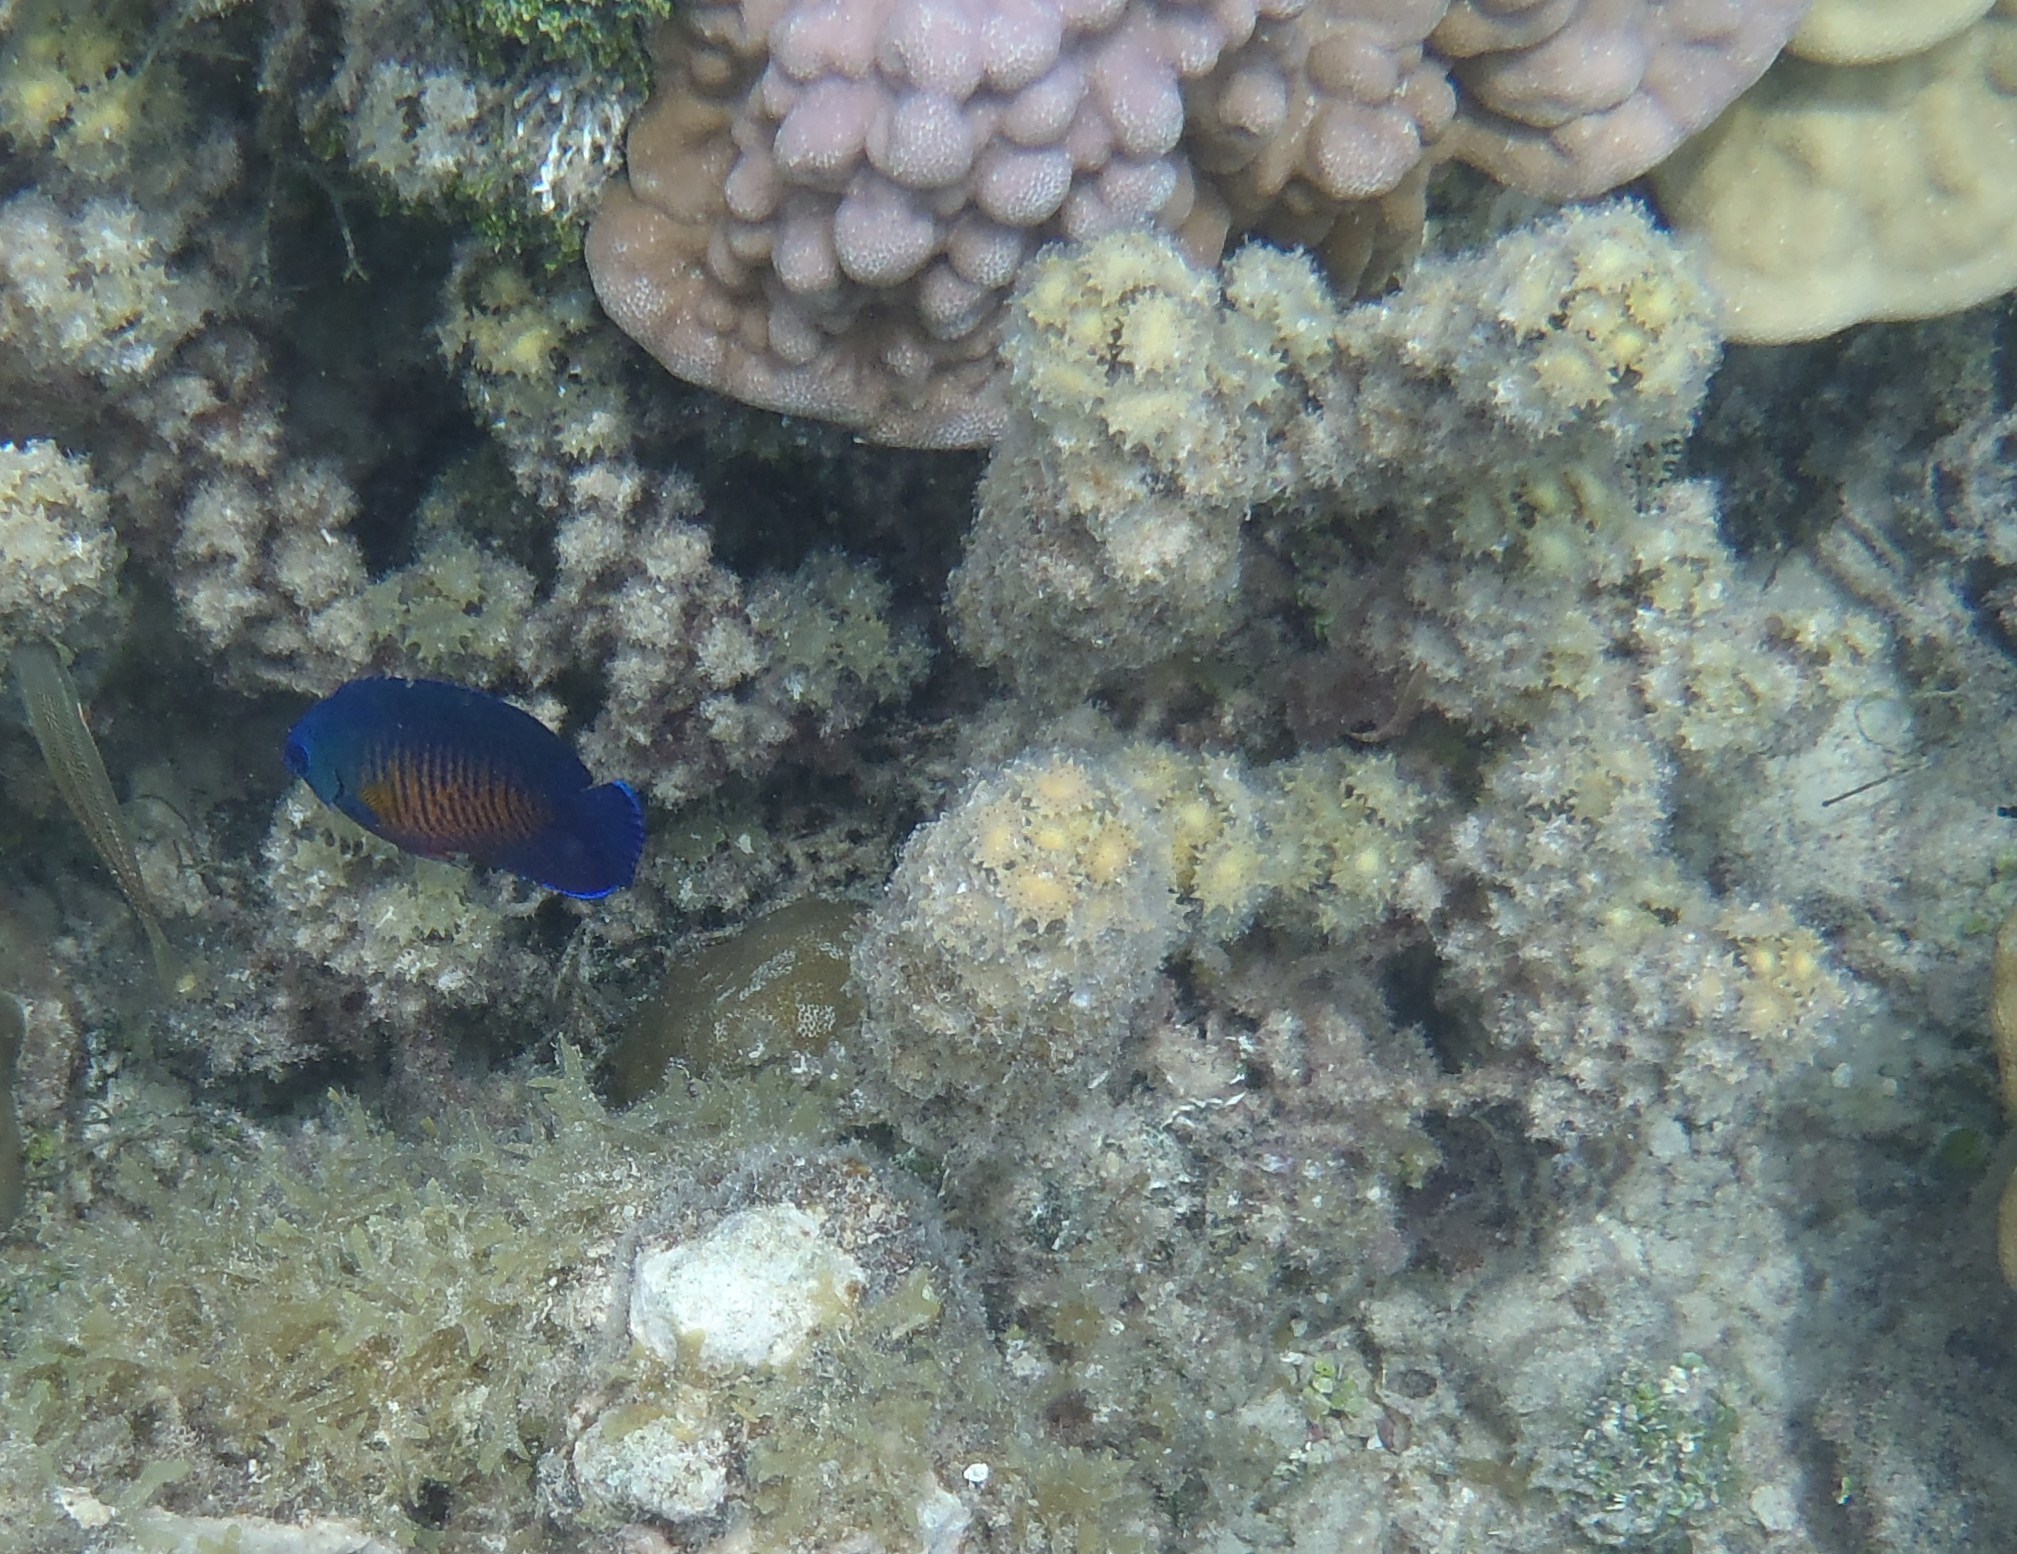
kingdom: Animalia
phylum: Chordata
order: Perciformes
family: Pomacanthidae
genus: Centropyge
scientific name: Centropyge bispinosa
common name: Coral beauty
